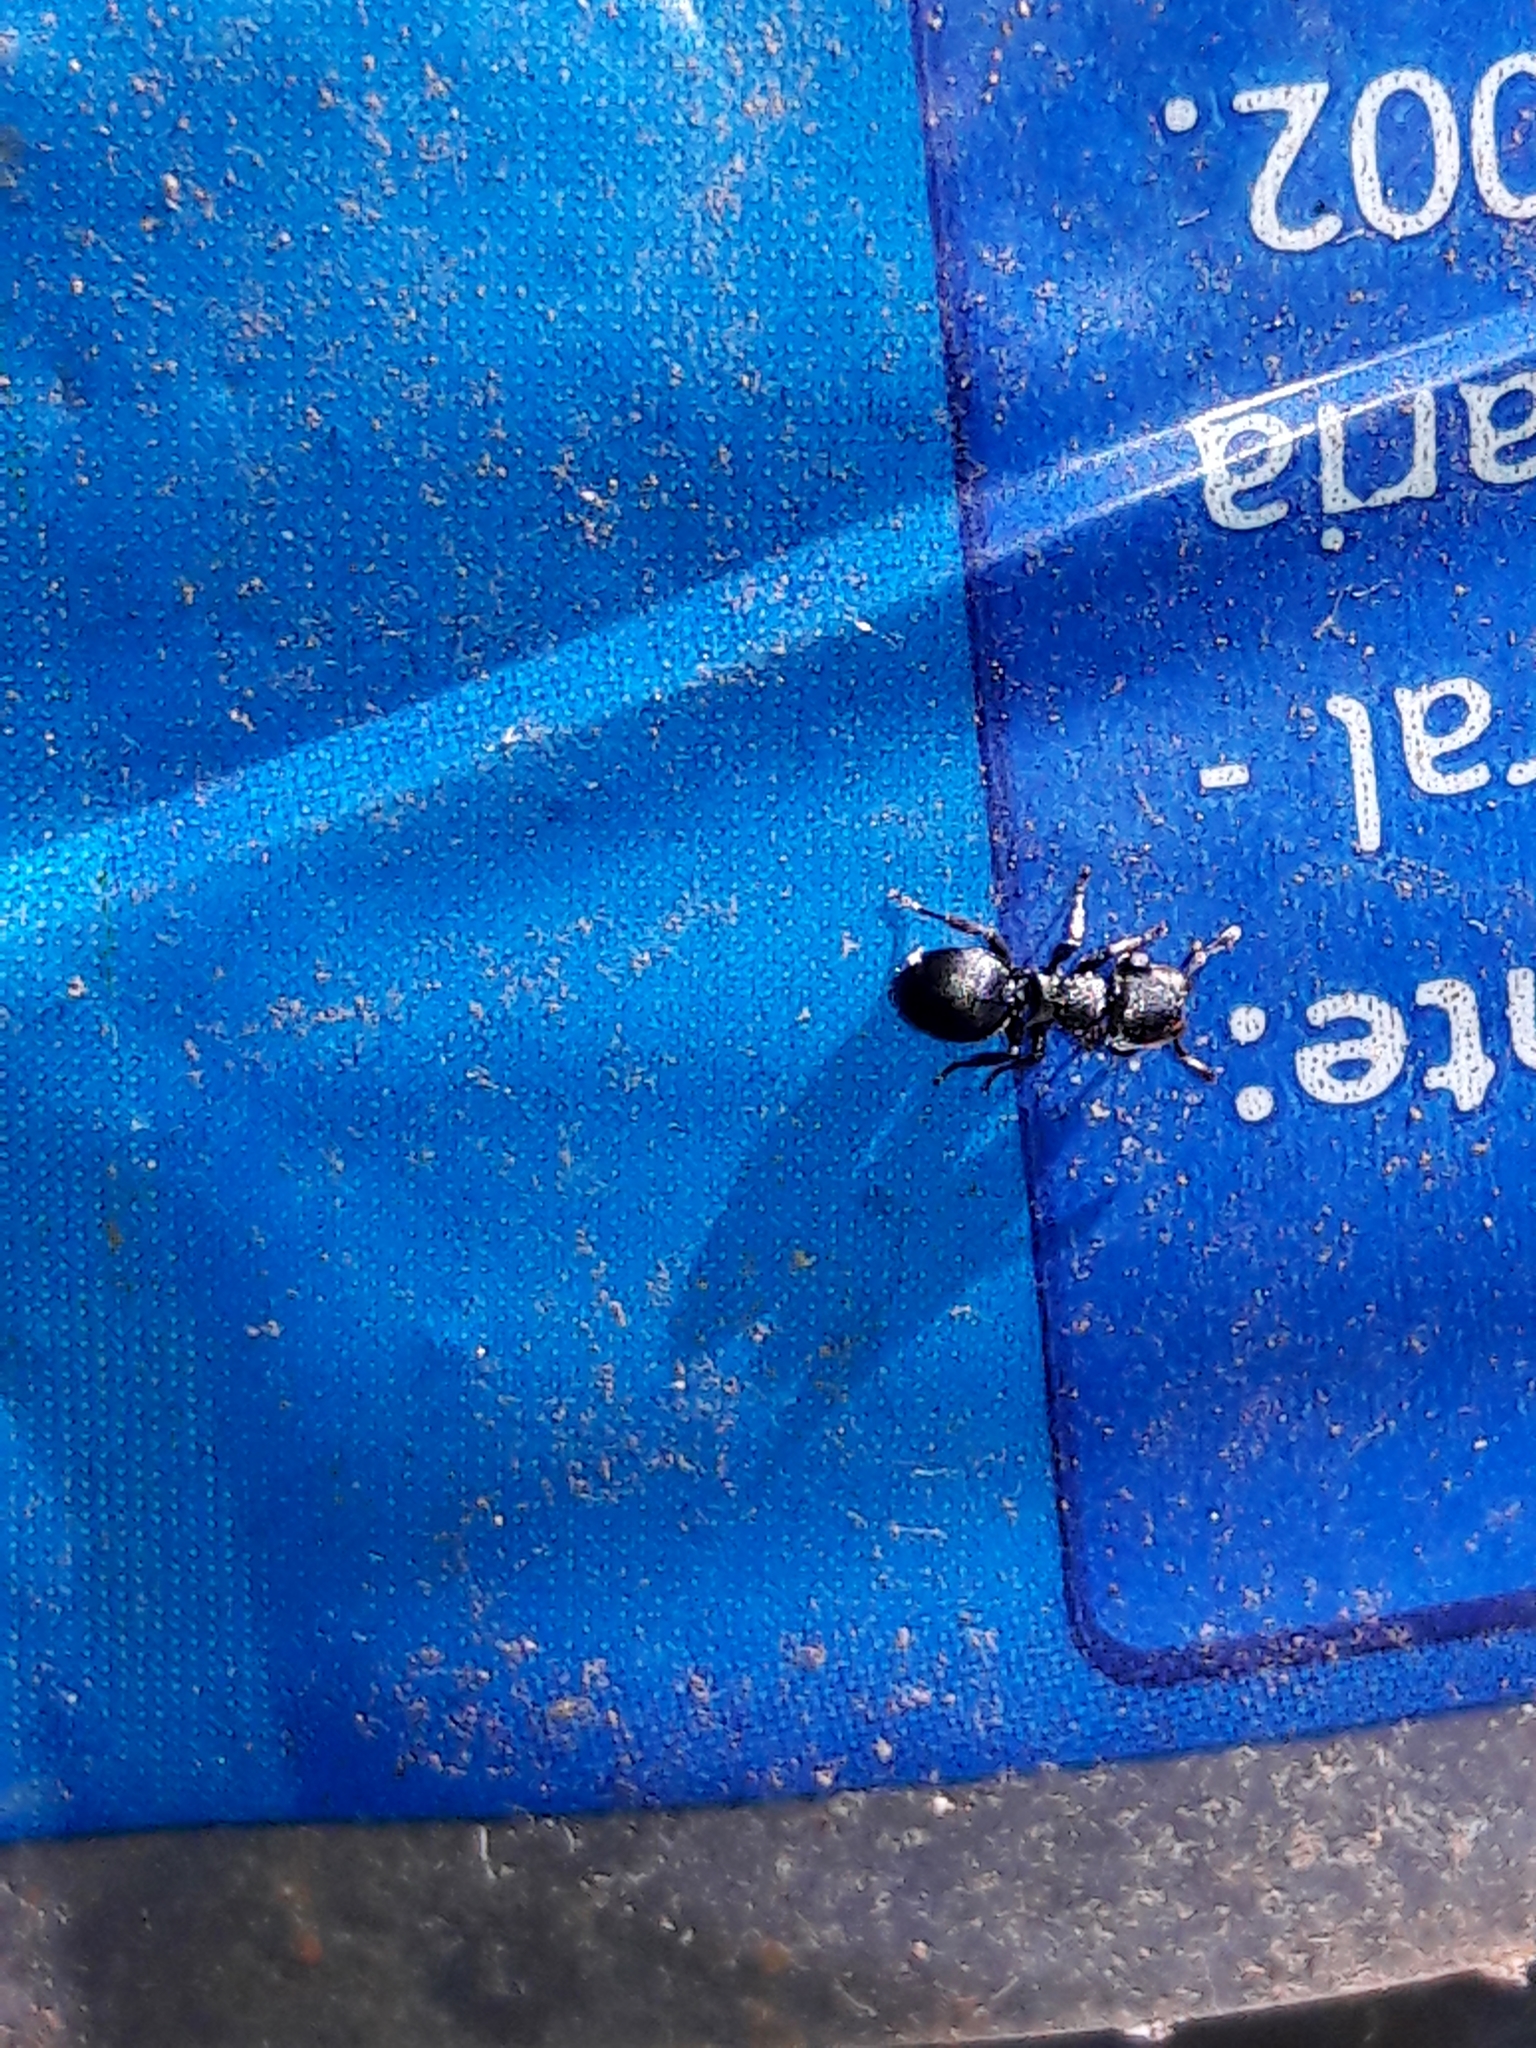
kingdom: Animalia
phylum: Arthropoda
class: Insecta
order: Hymenoptera
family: Formicidae
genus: Cephalotes
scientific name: Cephalotes
